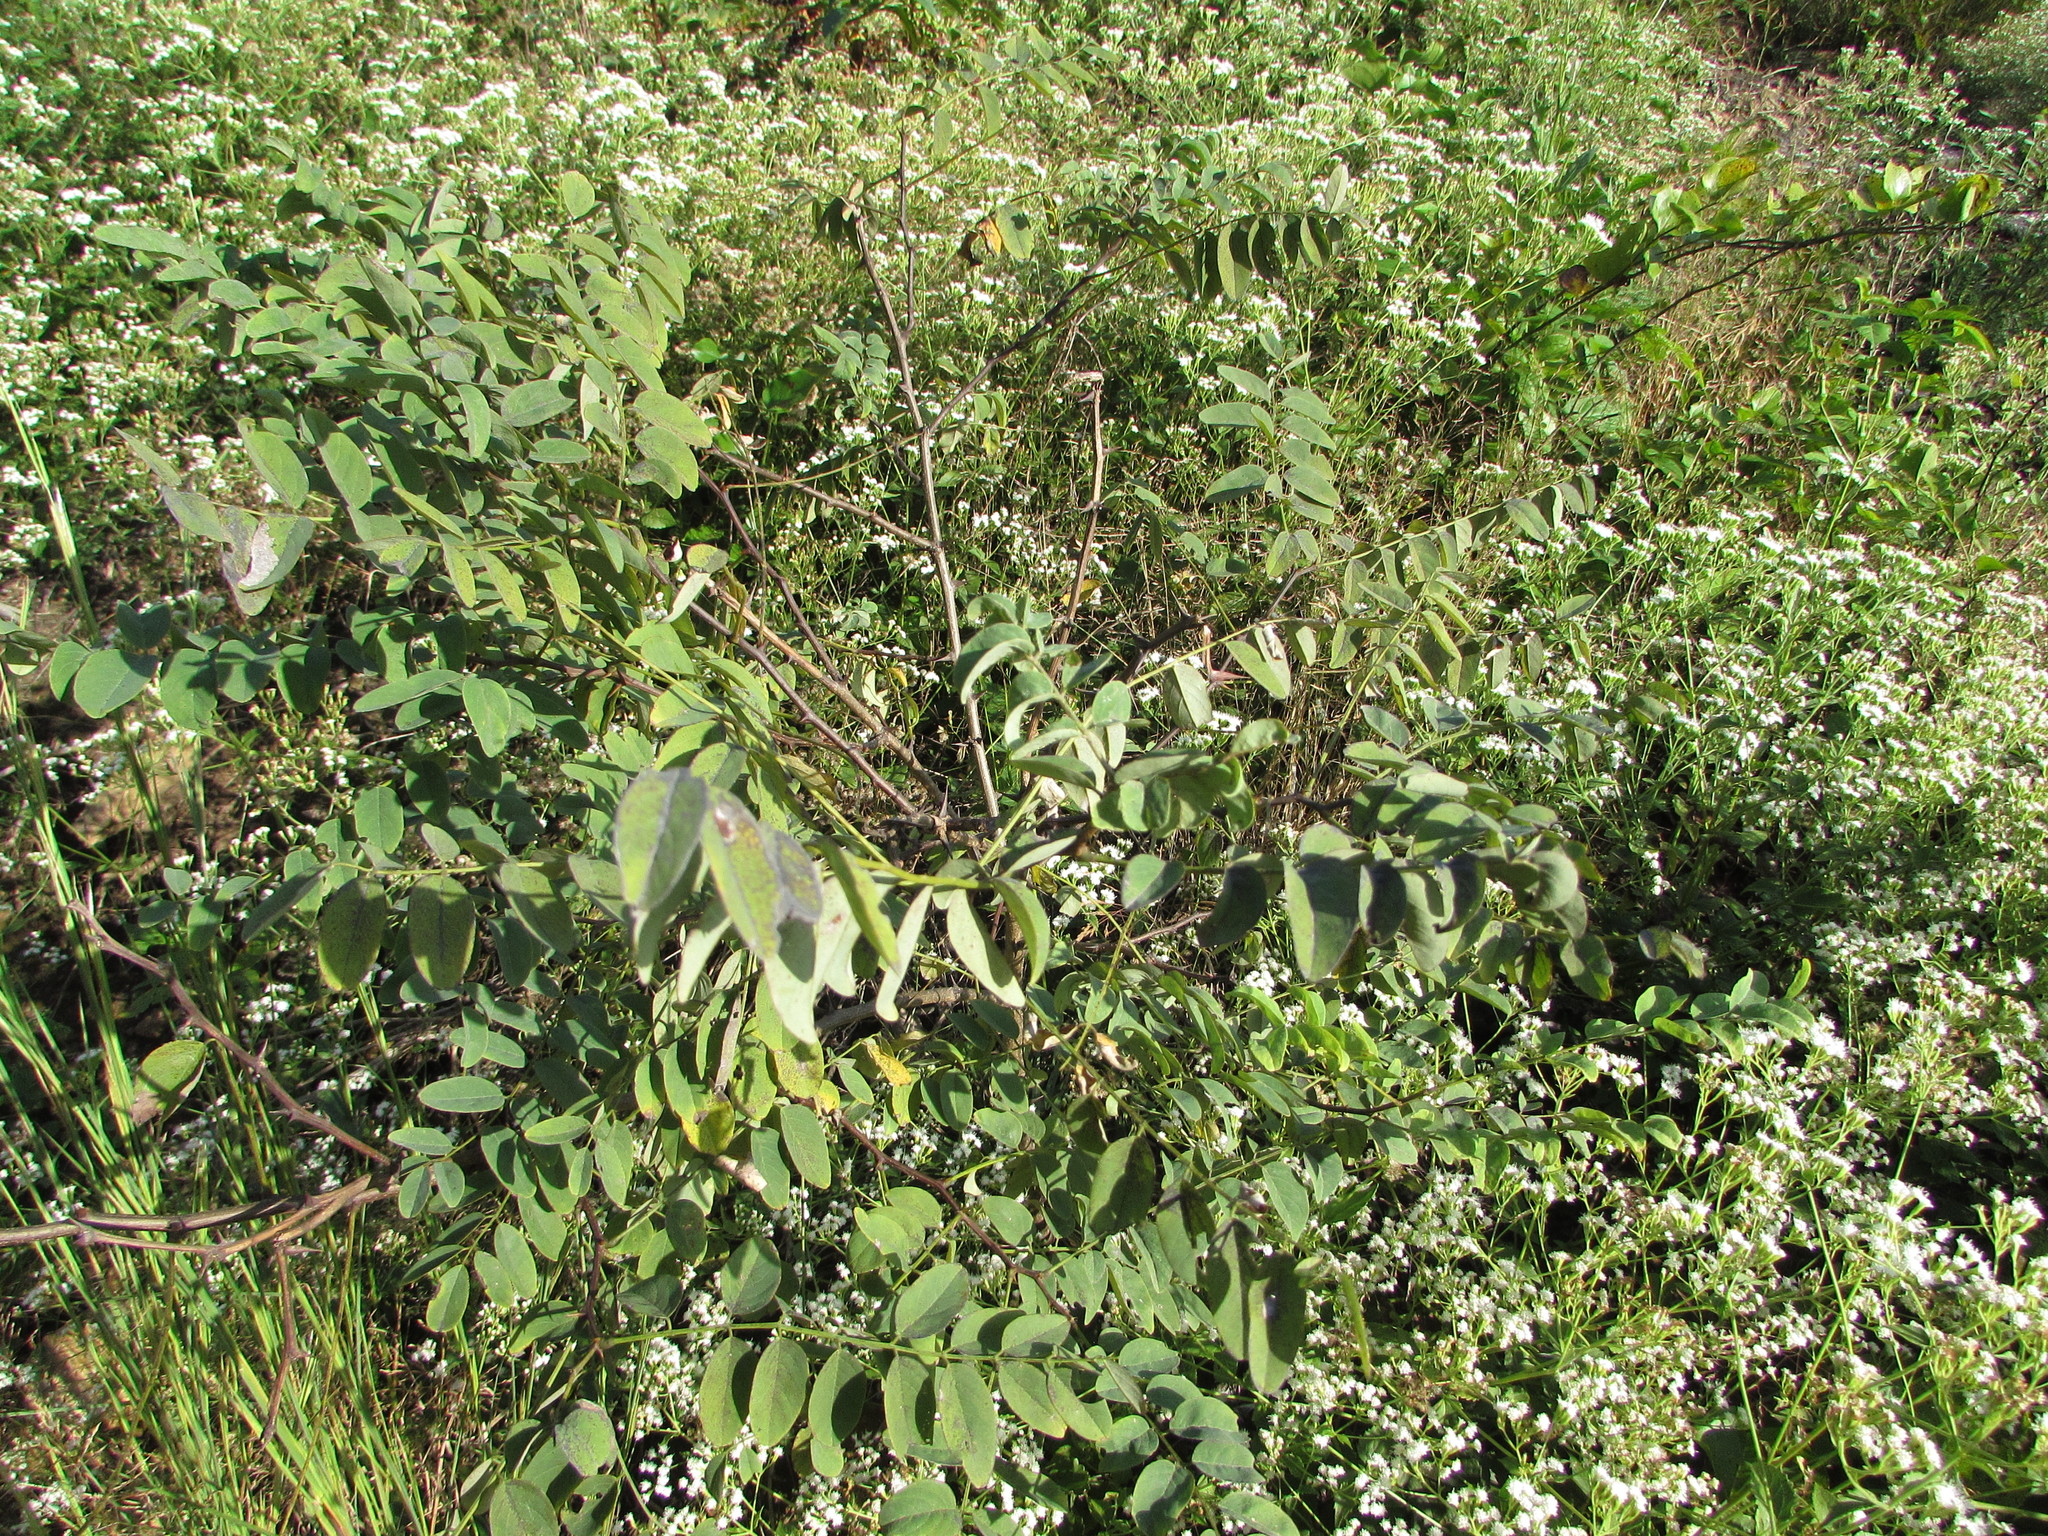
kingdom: Plantae
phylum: Tracheophyta
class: Magnoliopsida
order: Fabales
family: Fabaceae
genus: Robinia
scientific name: Robinia pseudoacacia
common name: Black locust
